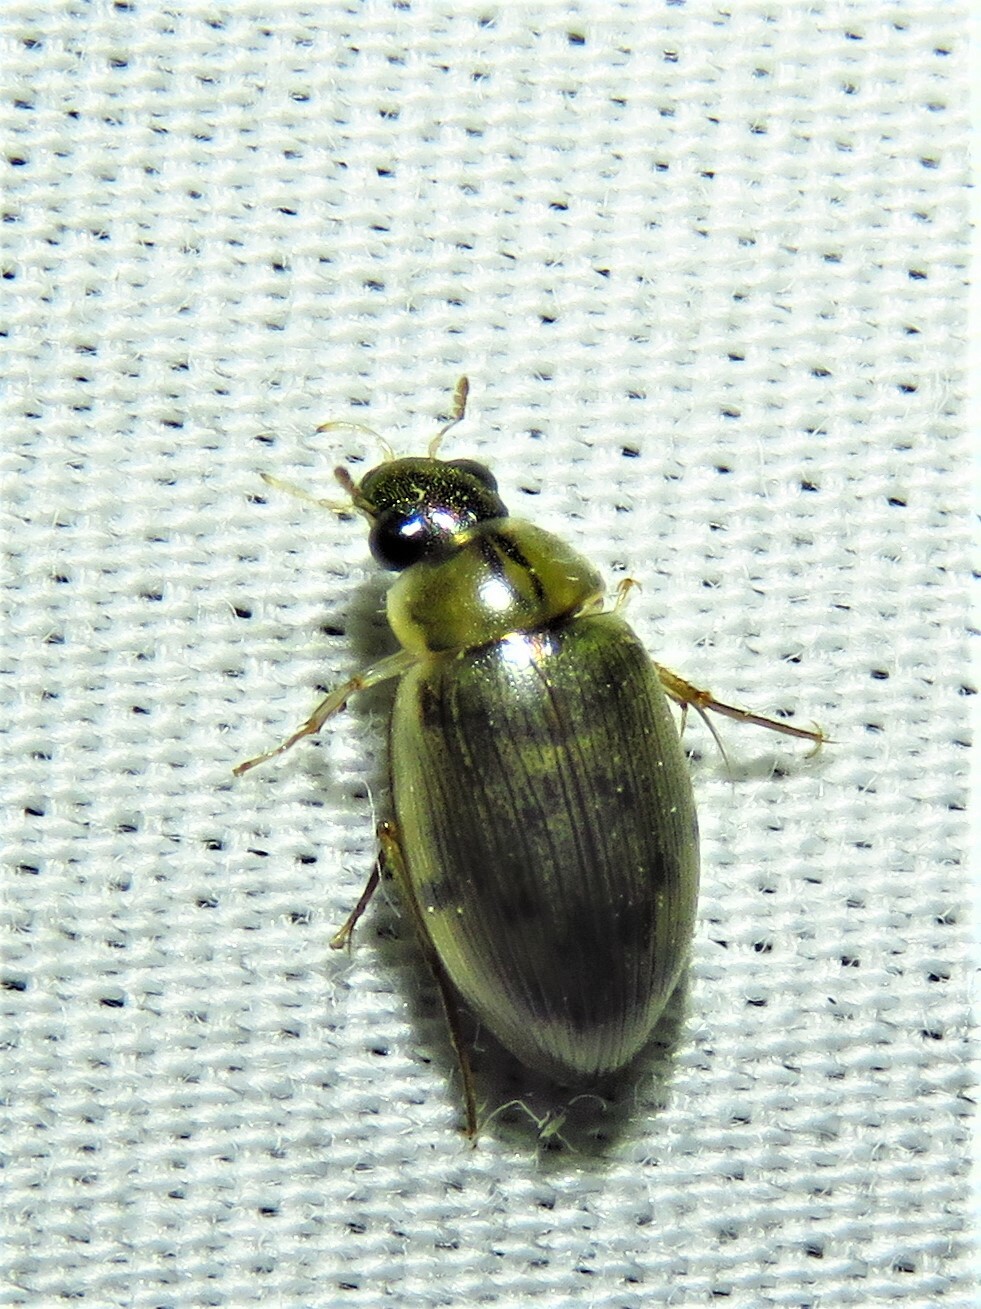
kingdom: Animalia
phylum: Arthropoda
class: Insecta
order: Coleoptera
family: Hydrophilidae
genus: Berosus
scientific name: Berosus
